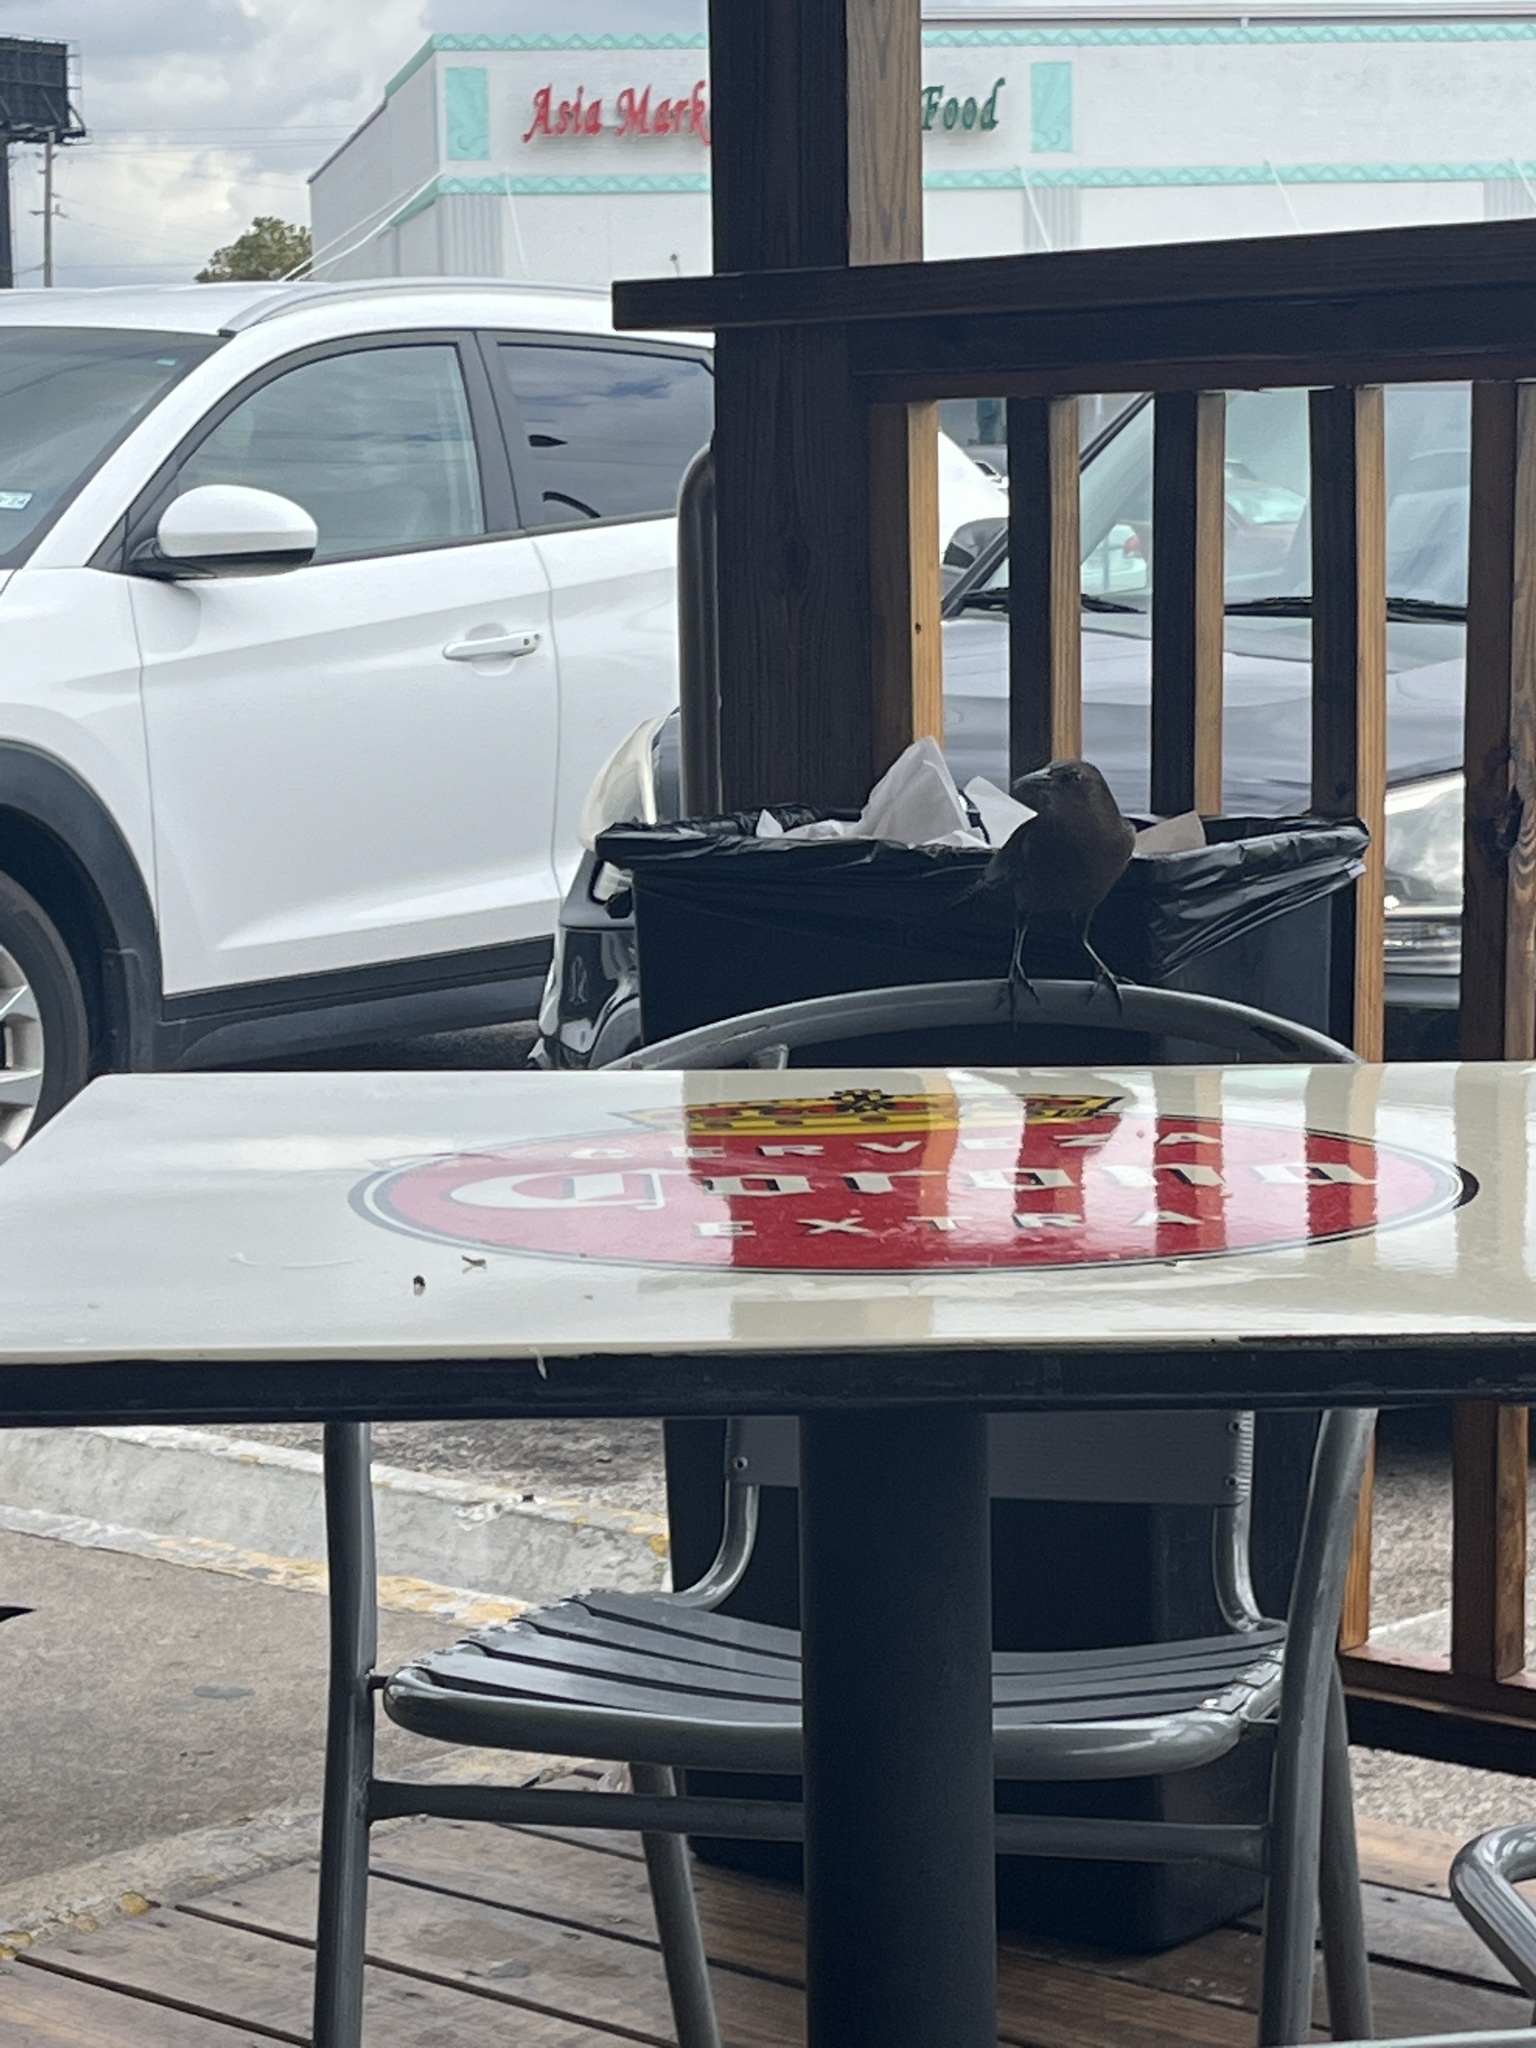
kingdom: Animalia
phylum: Chordata
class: Aves
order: Passeriformes
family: Icteridae
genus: Quiscalus
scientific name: Quiscalus mexicanus
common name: Great-tailed grackle
